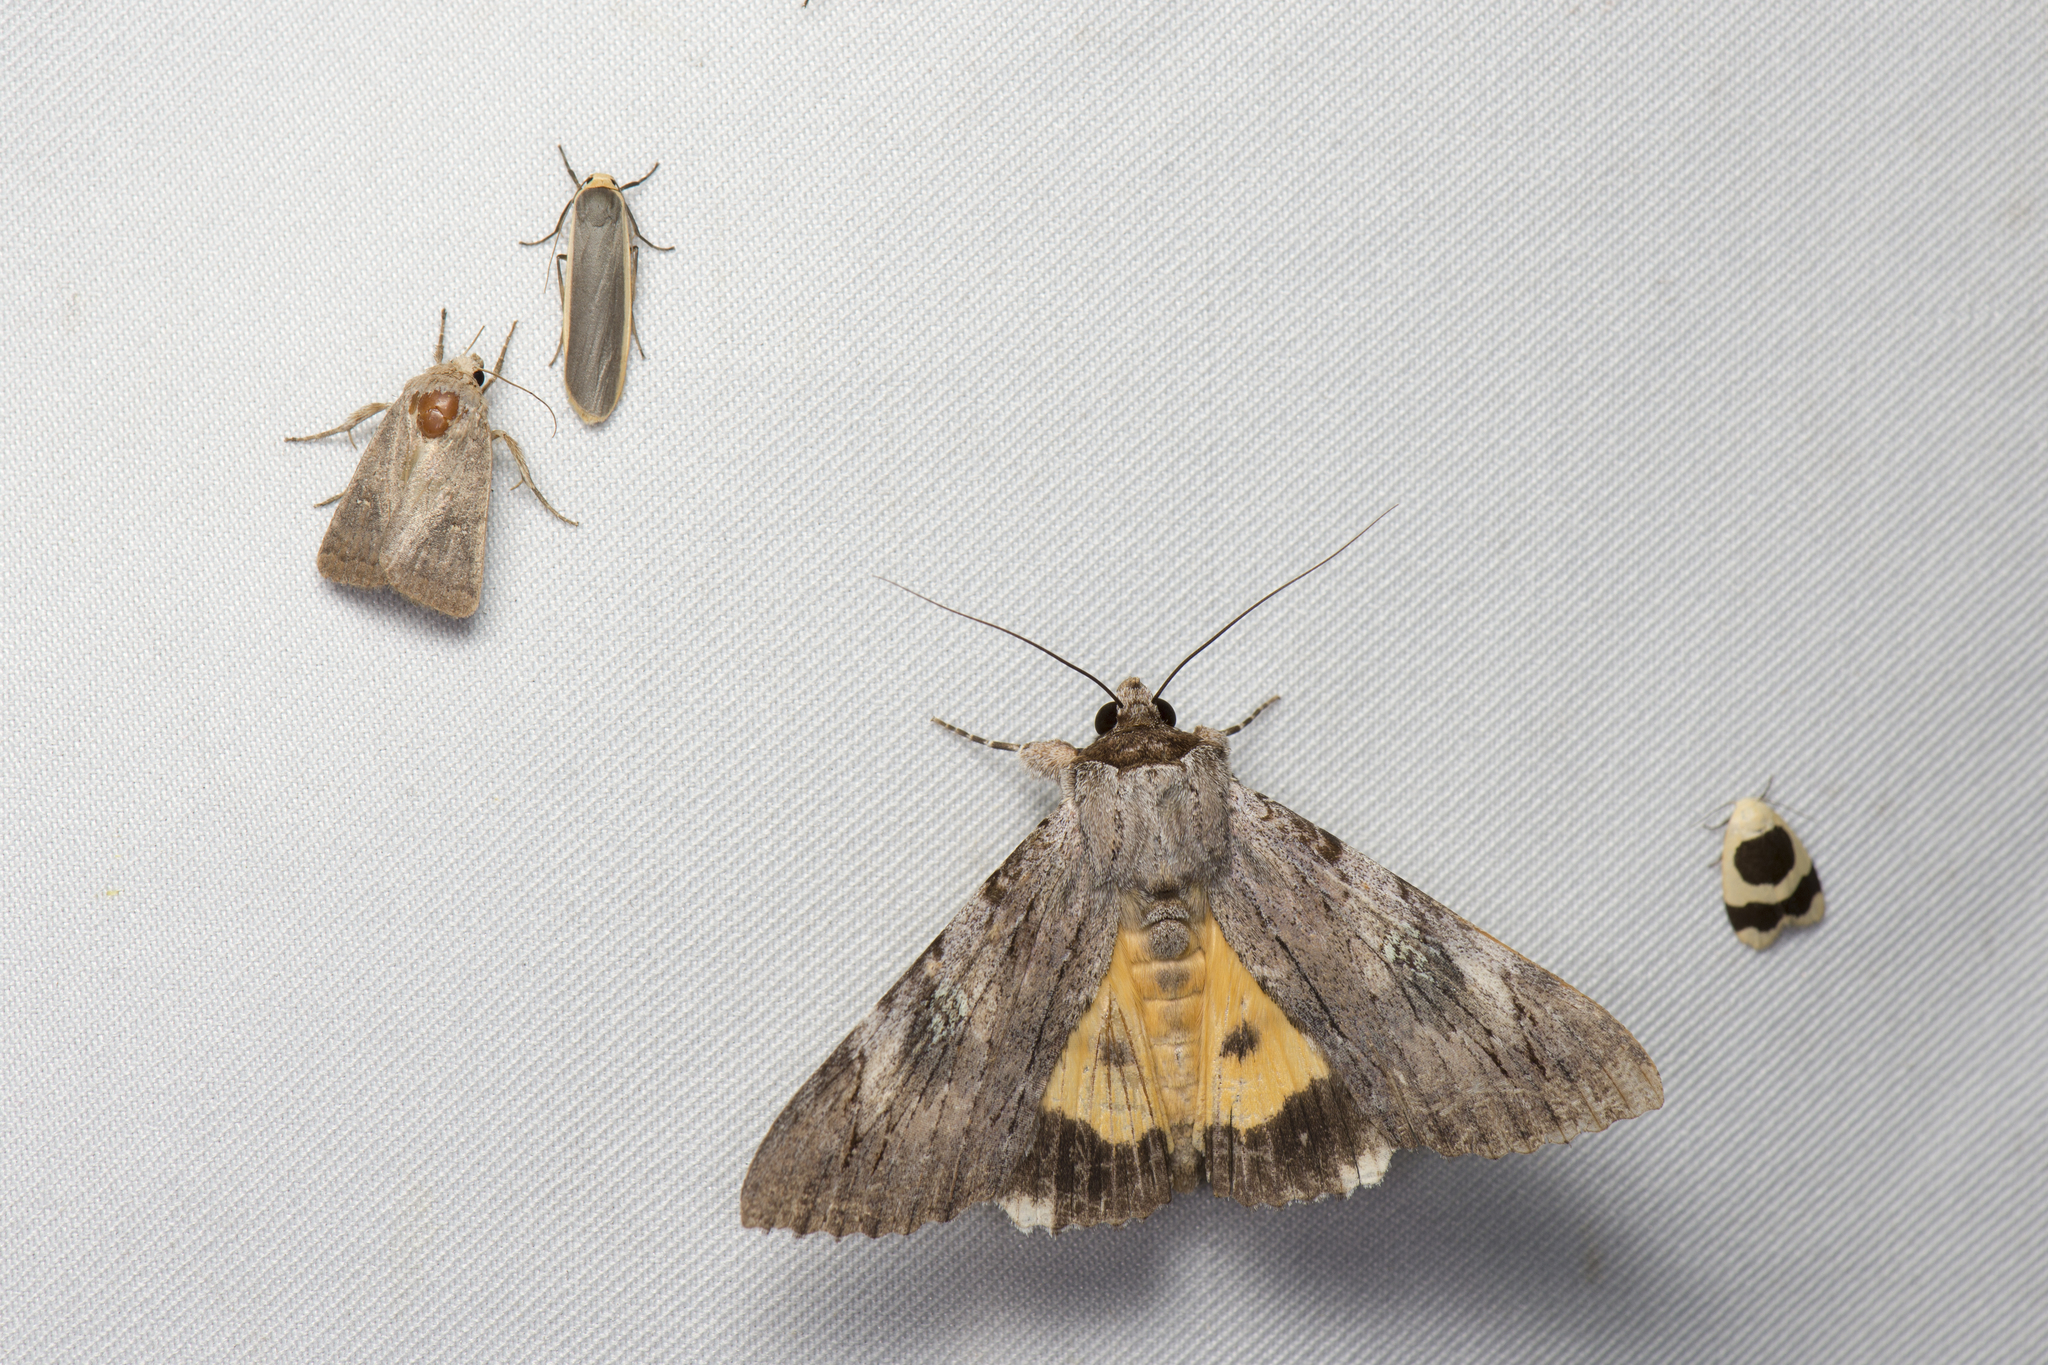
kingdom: Animalia
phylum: Arthropoda
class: Insecta
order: Lepidoptera
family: Erebidae
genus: Catocala
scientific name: Catocala macula
